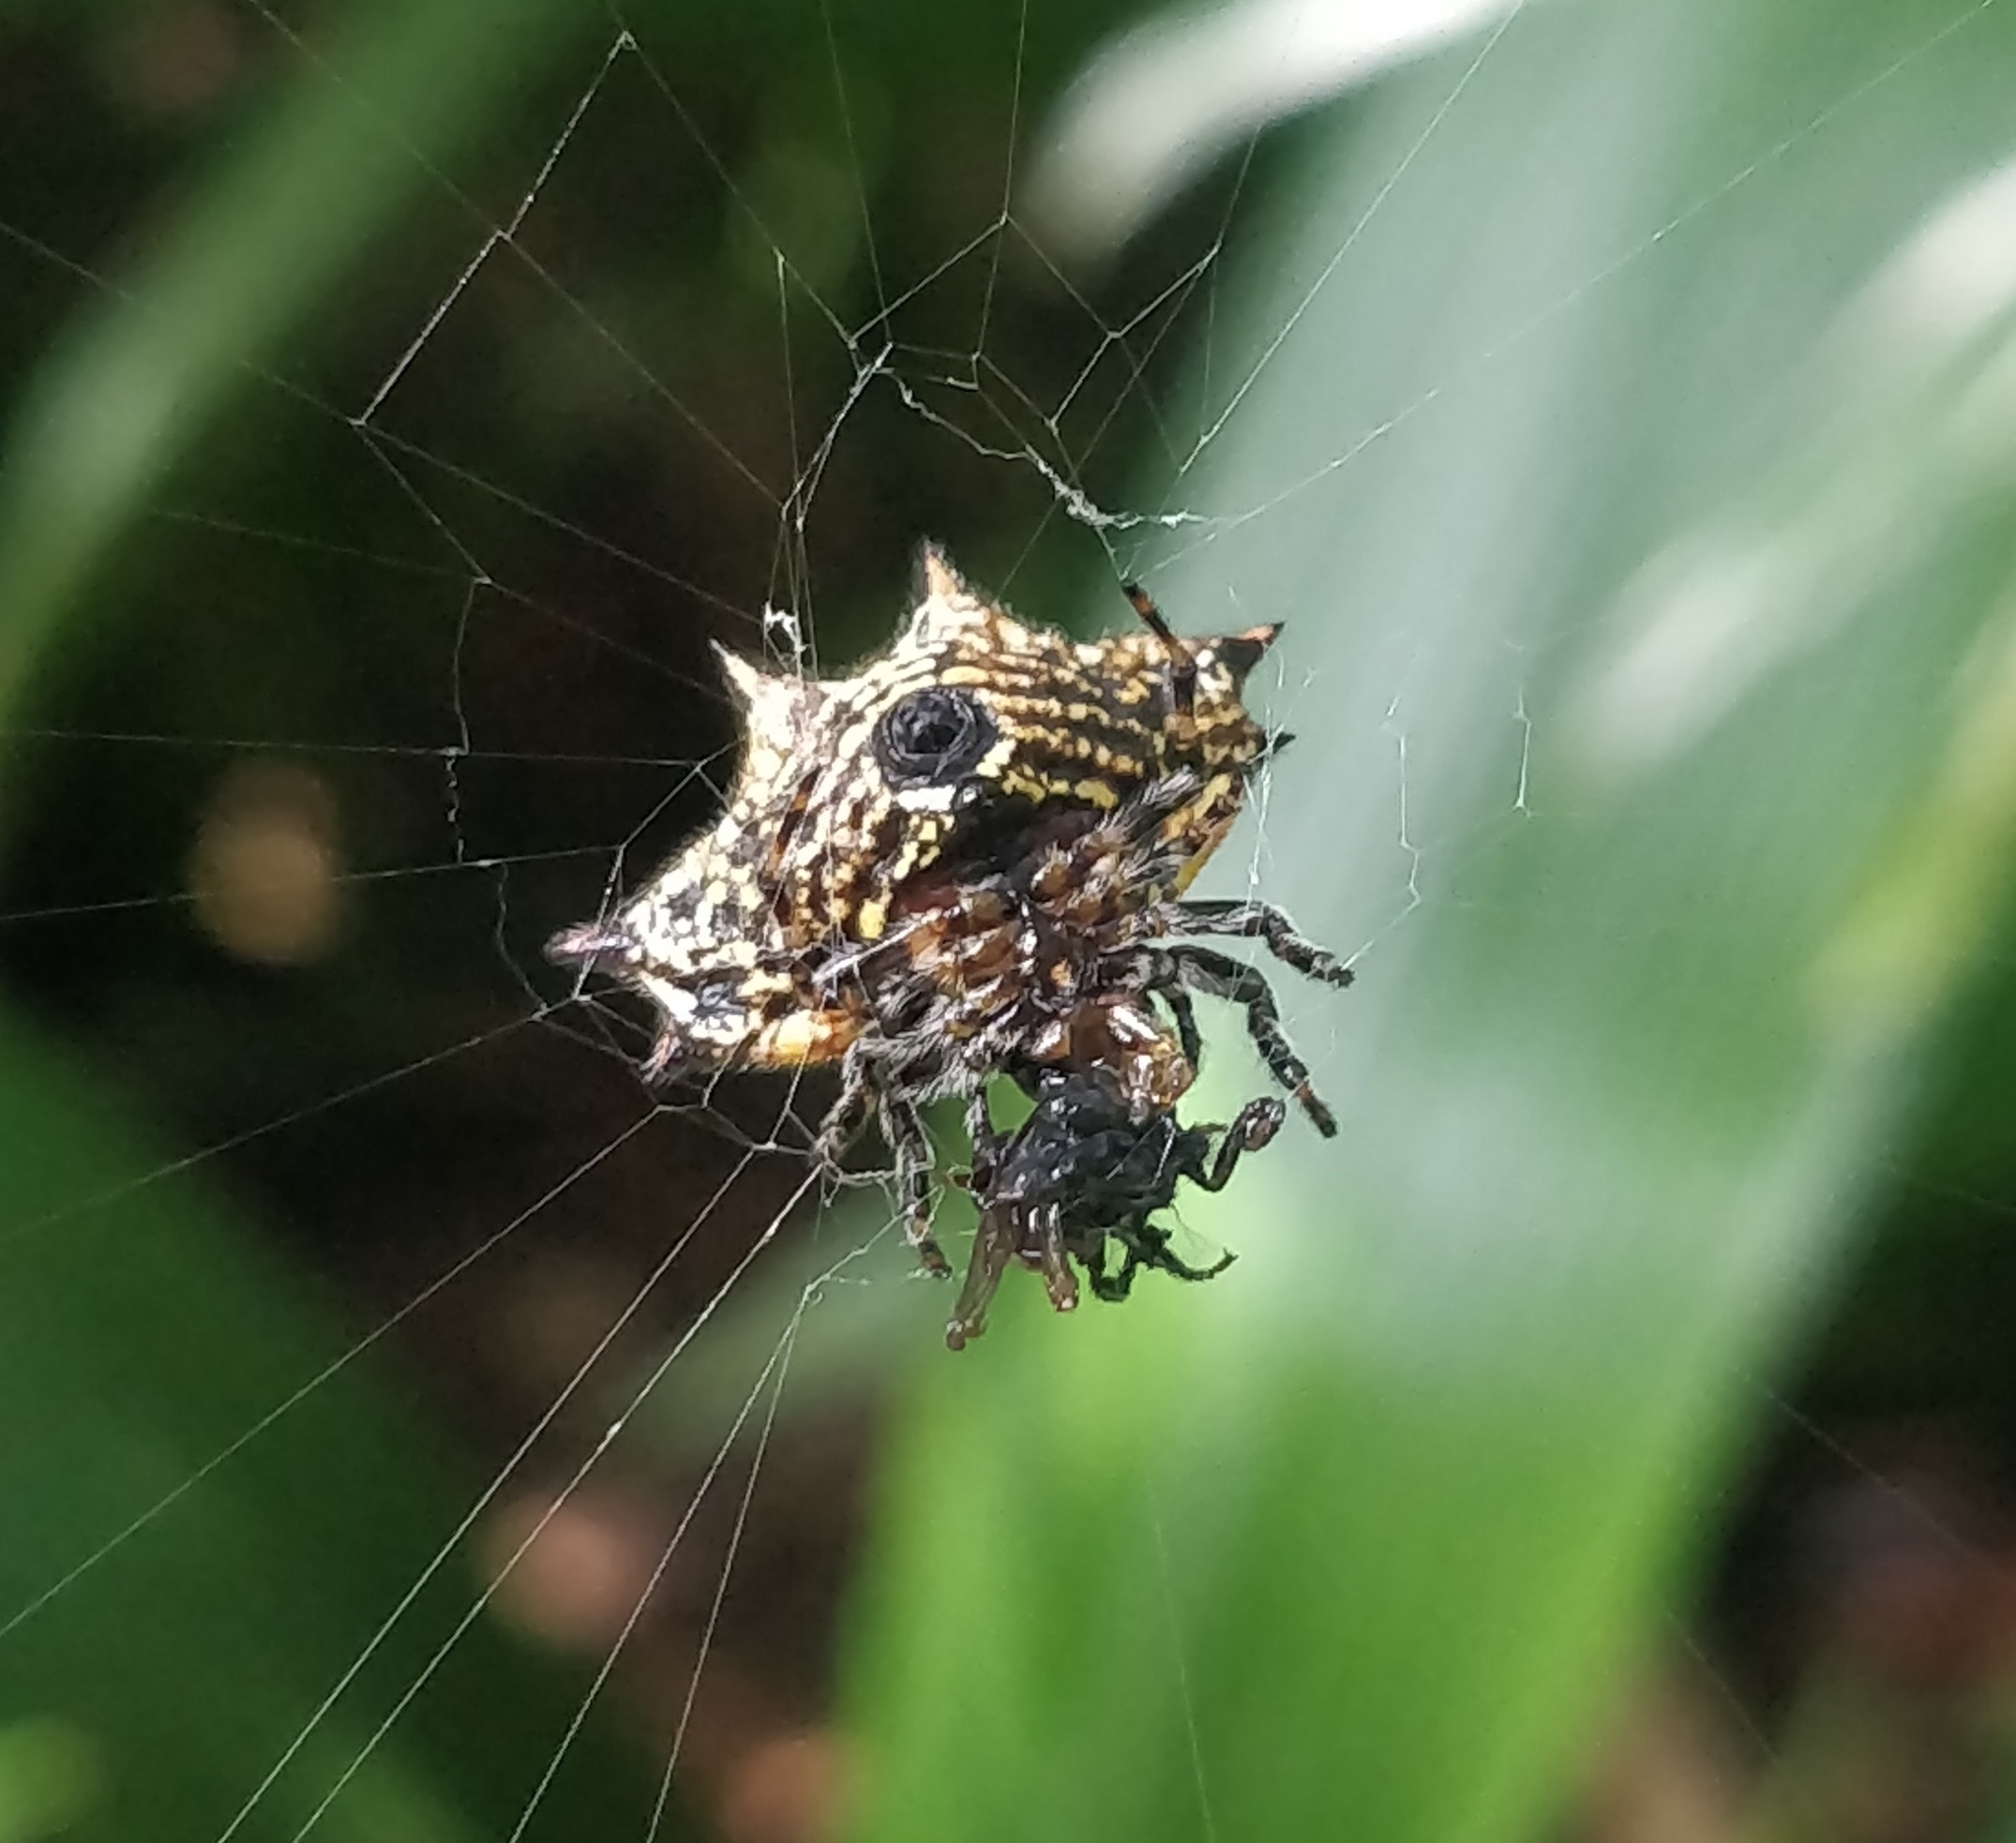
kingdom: Animalia
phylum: Arthropoda
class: Arachnida
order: Araneae
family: Araneidae
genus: Gasteracantha
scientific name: Gasteracantha cancriformis
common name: Orb weavers
